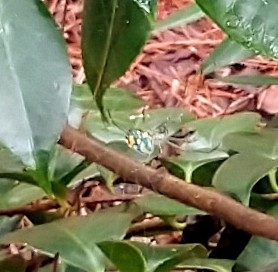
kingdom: Animalia
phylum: Arthropoda
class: Arachnida
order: Araneae
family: Tetragnathidae
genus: Leucauge
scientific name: Leucauge argyrobapta
